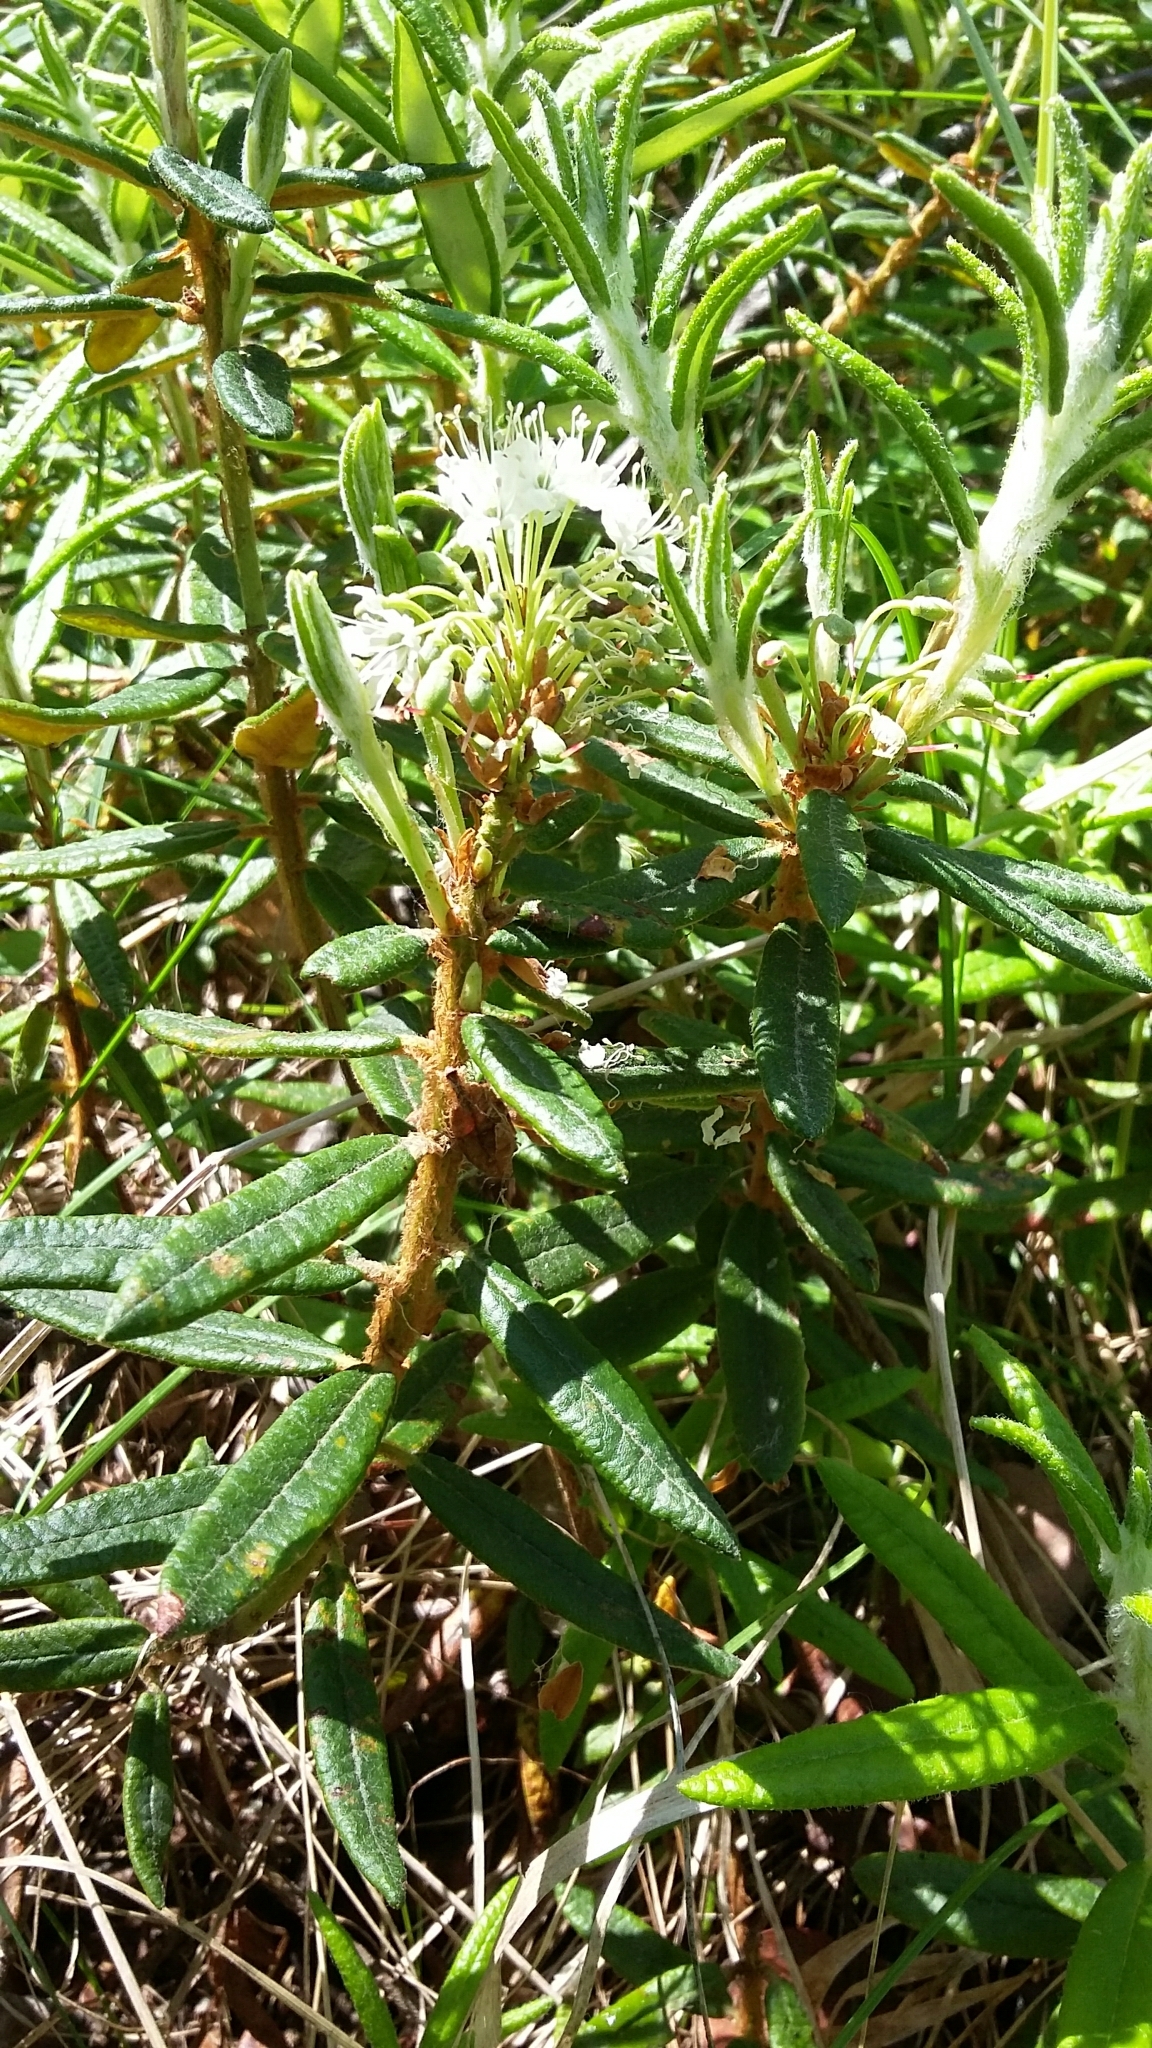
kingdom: Plantae
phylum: Tracheophyta
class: Magnoliopsida
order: Ericales
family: Ericaceae
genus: Rhododendron
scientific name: Rhododendron groenlandicum
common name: Bog labrador tea
